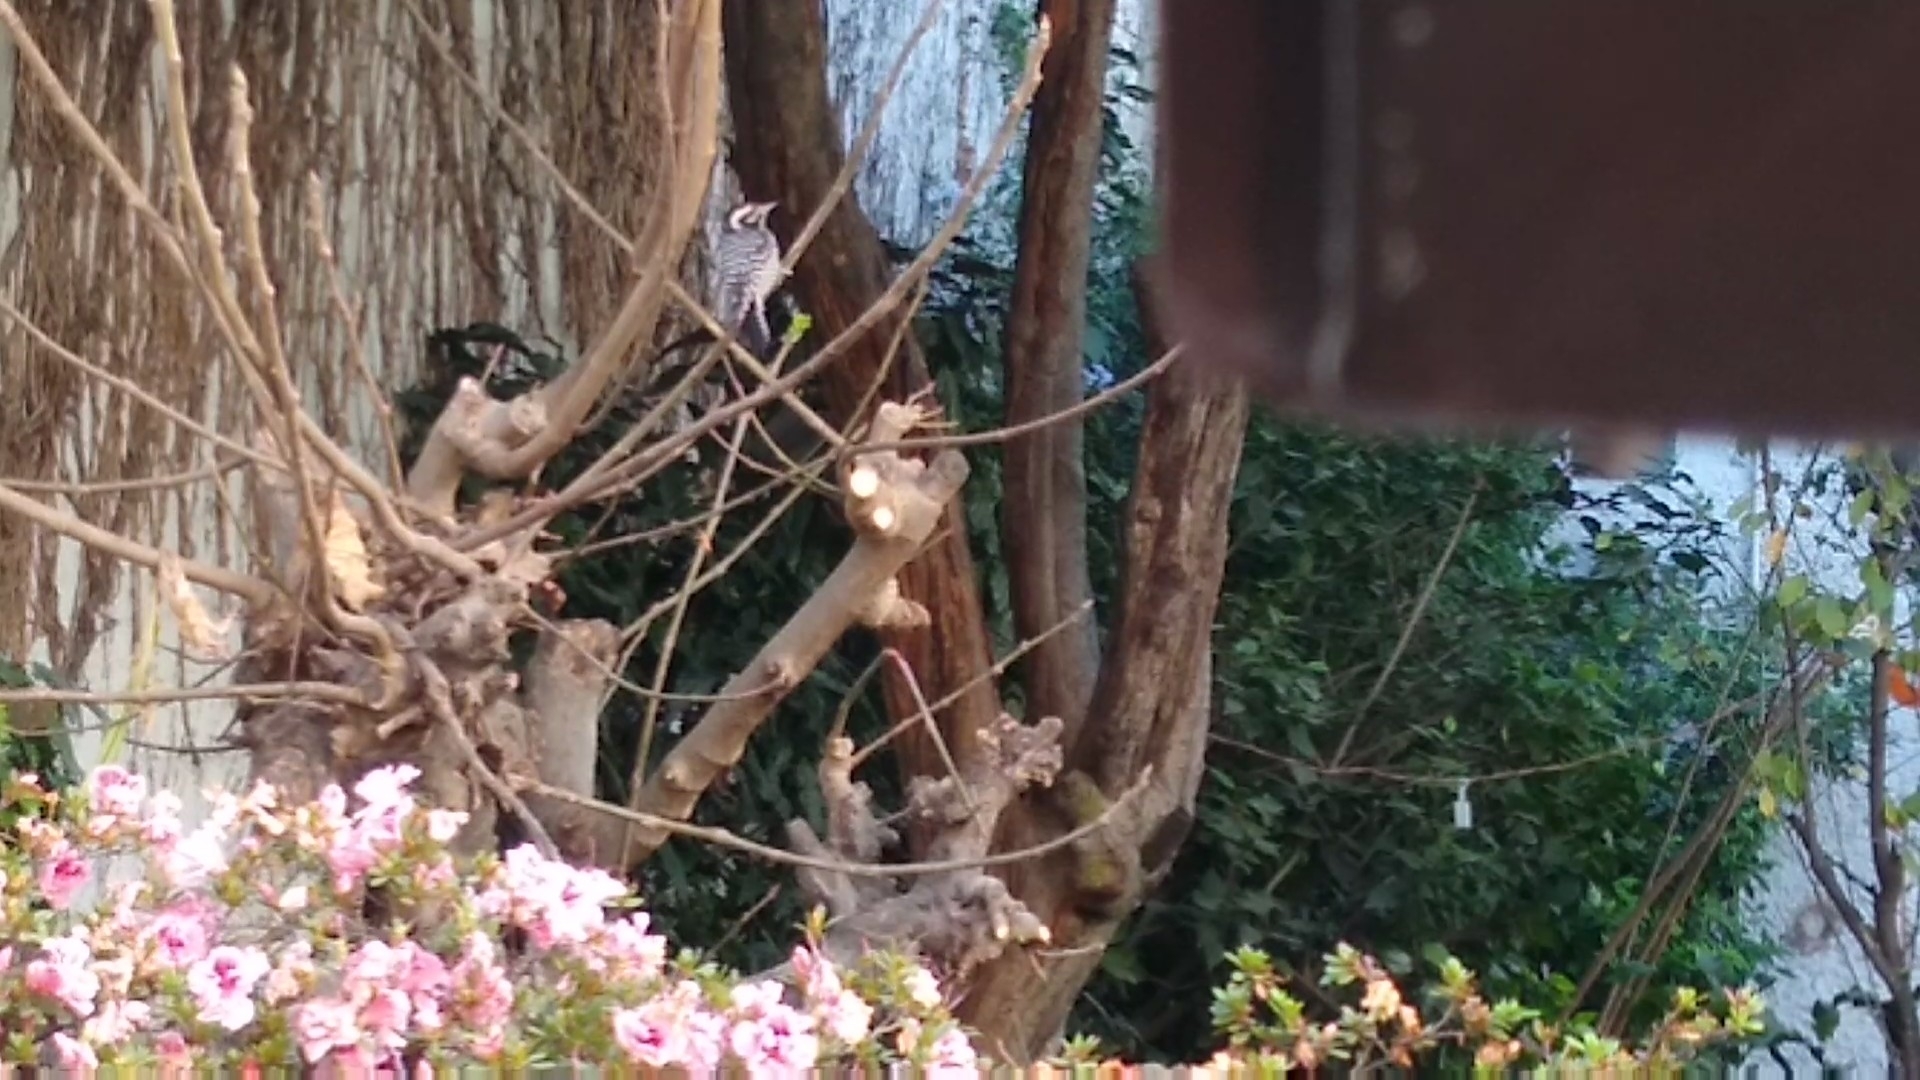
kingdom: Animalia
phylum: Chordata
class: Aves
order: Piciformes
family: Picidae
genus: Dryobates
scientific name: Dryobates scalaris
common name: Ladder-backed woodpecker
